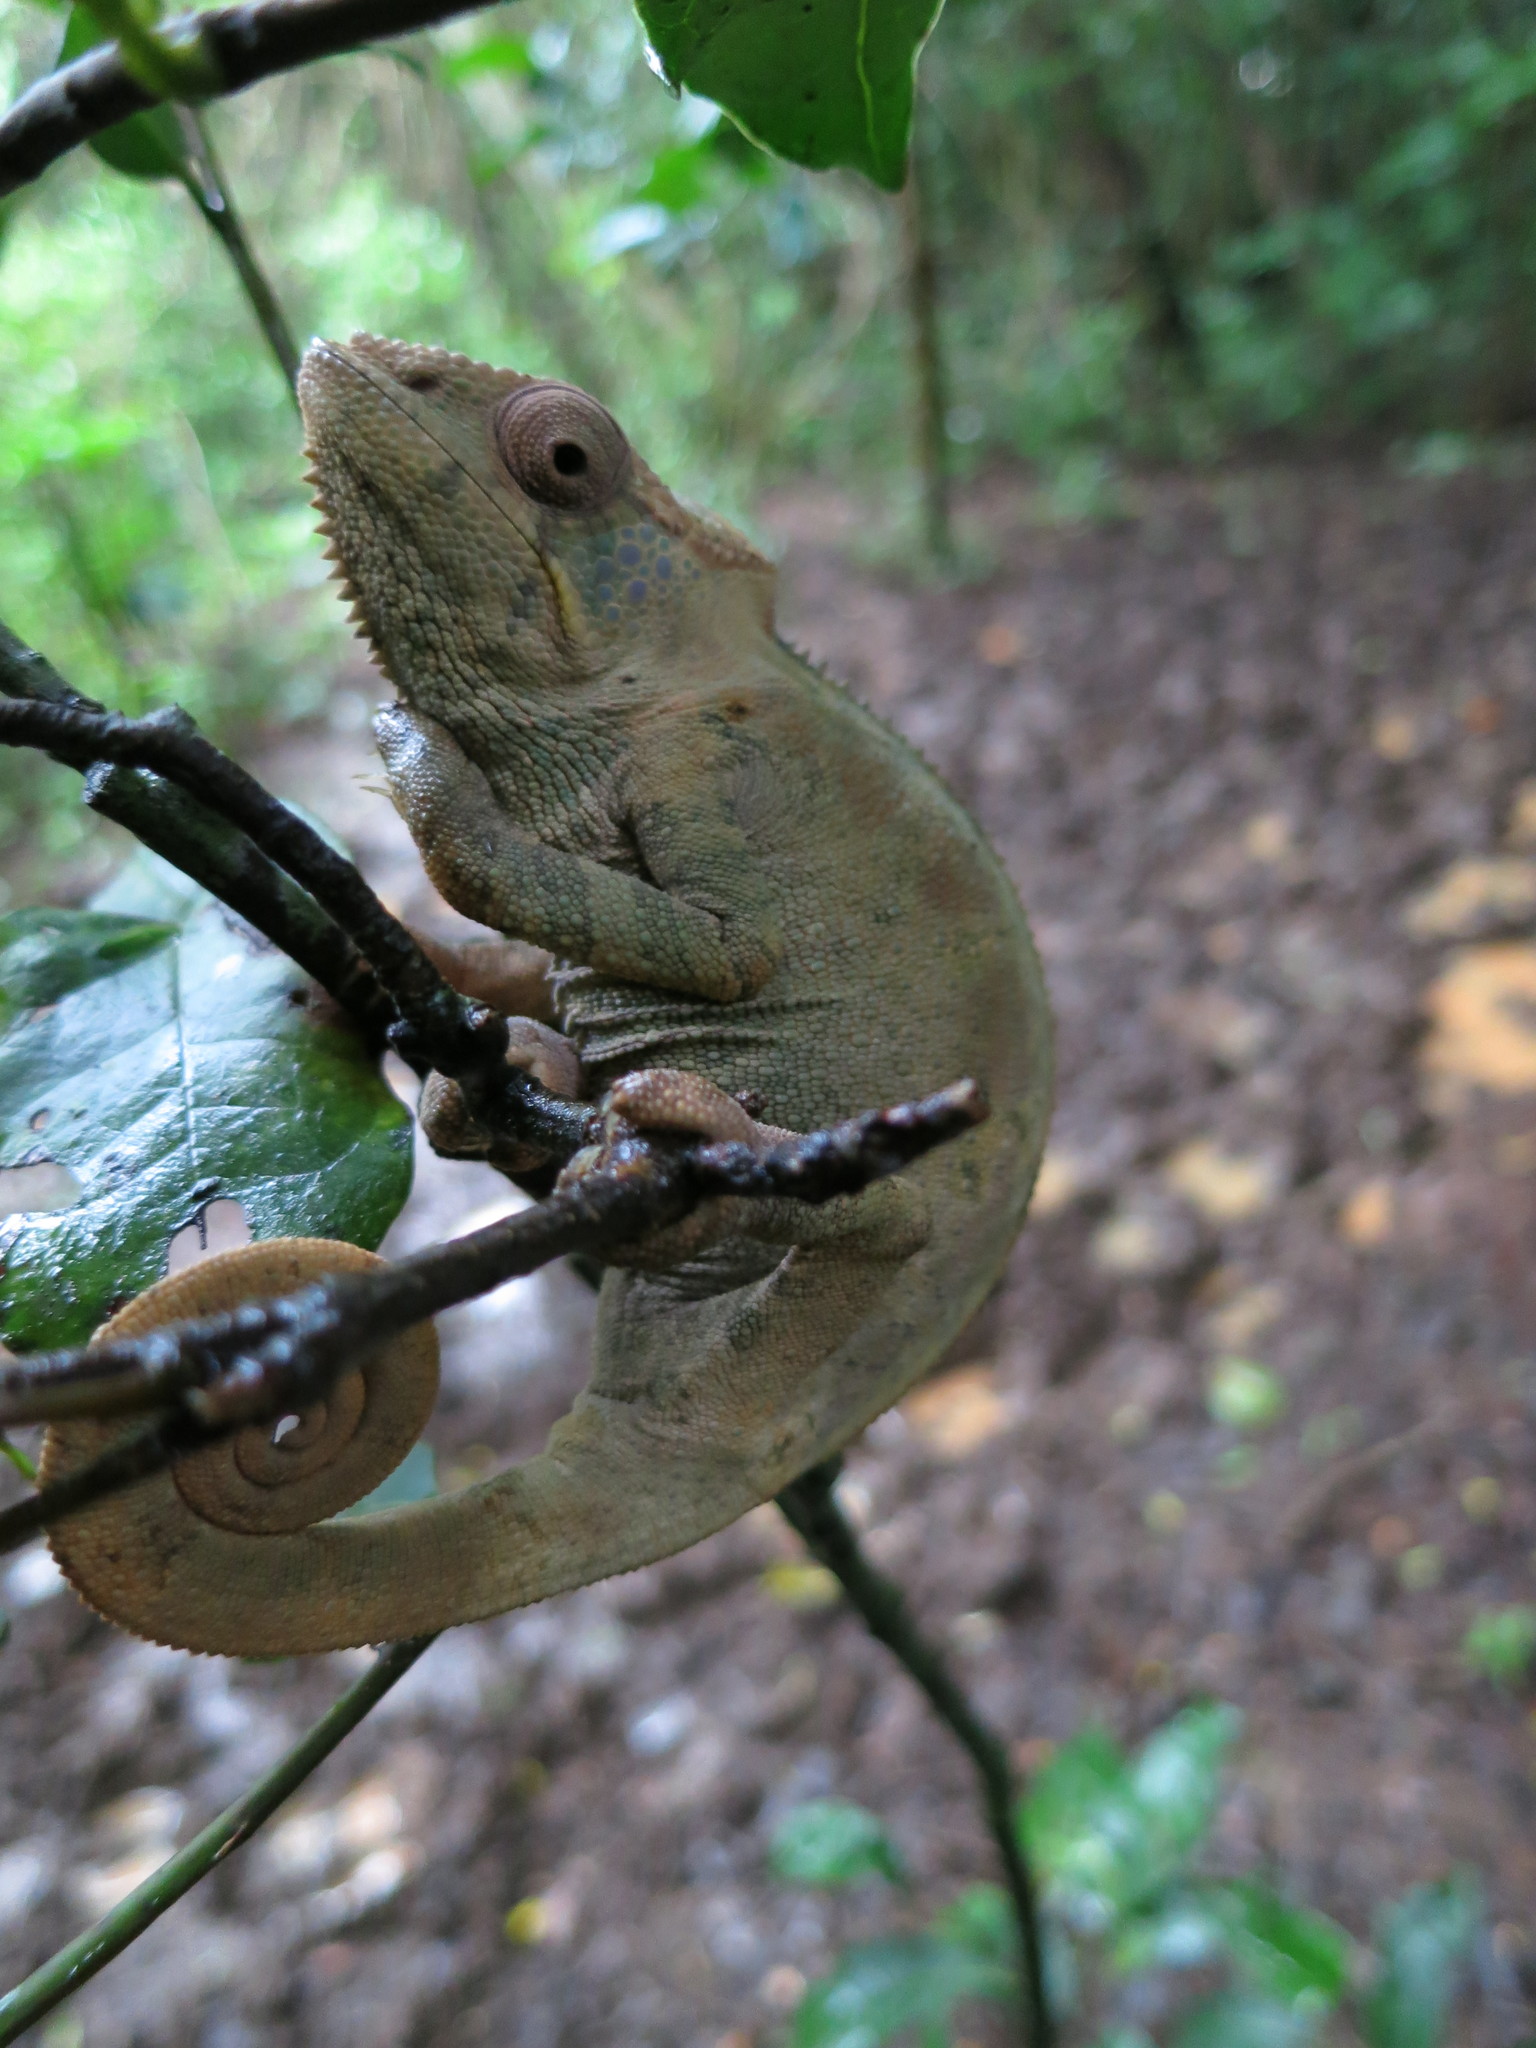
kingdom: Animalia
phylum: Chordata
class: Squamata
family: Chamaeleonidae
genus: Furcifer
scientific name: Furcifer pardalis
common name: Panther chameleon
